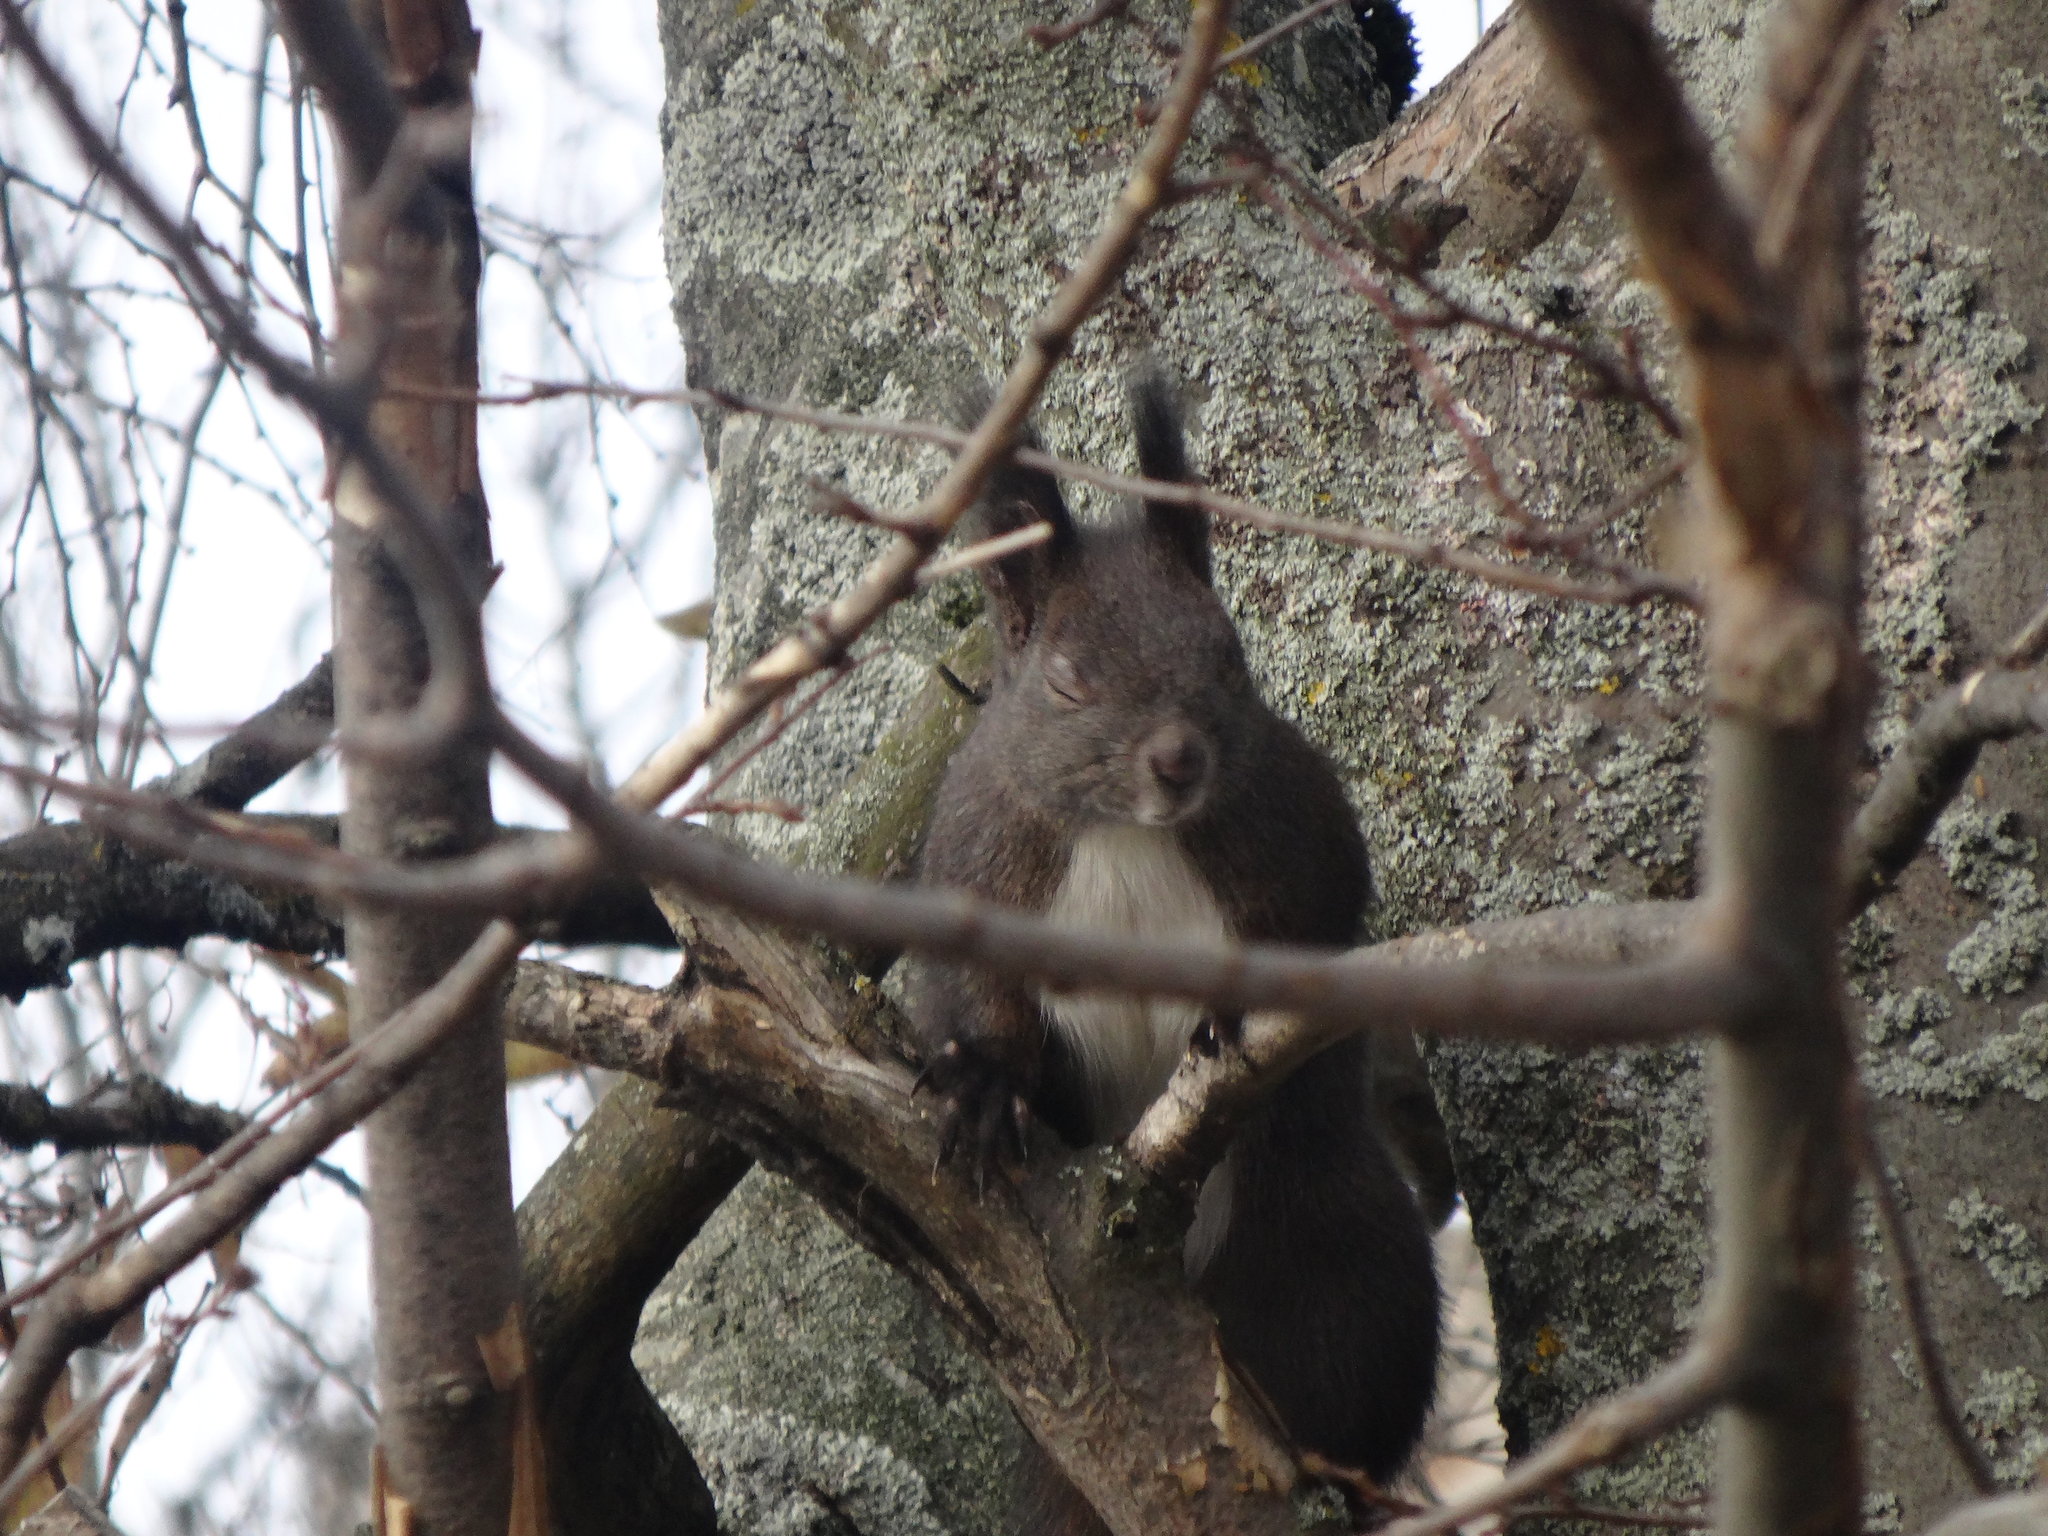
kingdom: Animalia
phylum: Chordata
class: Mammalia
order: Rodentia
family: Sciuridae
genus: Sciurus
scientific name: Sciurus vulgaris
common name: Eurasian red squirrel
